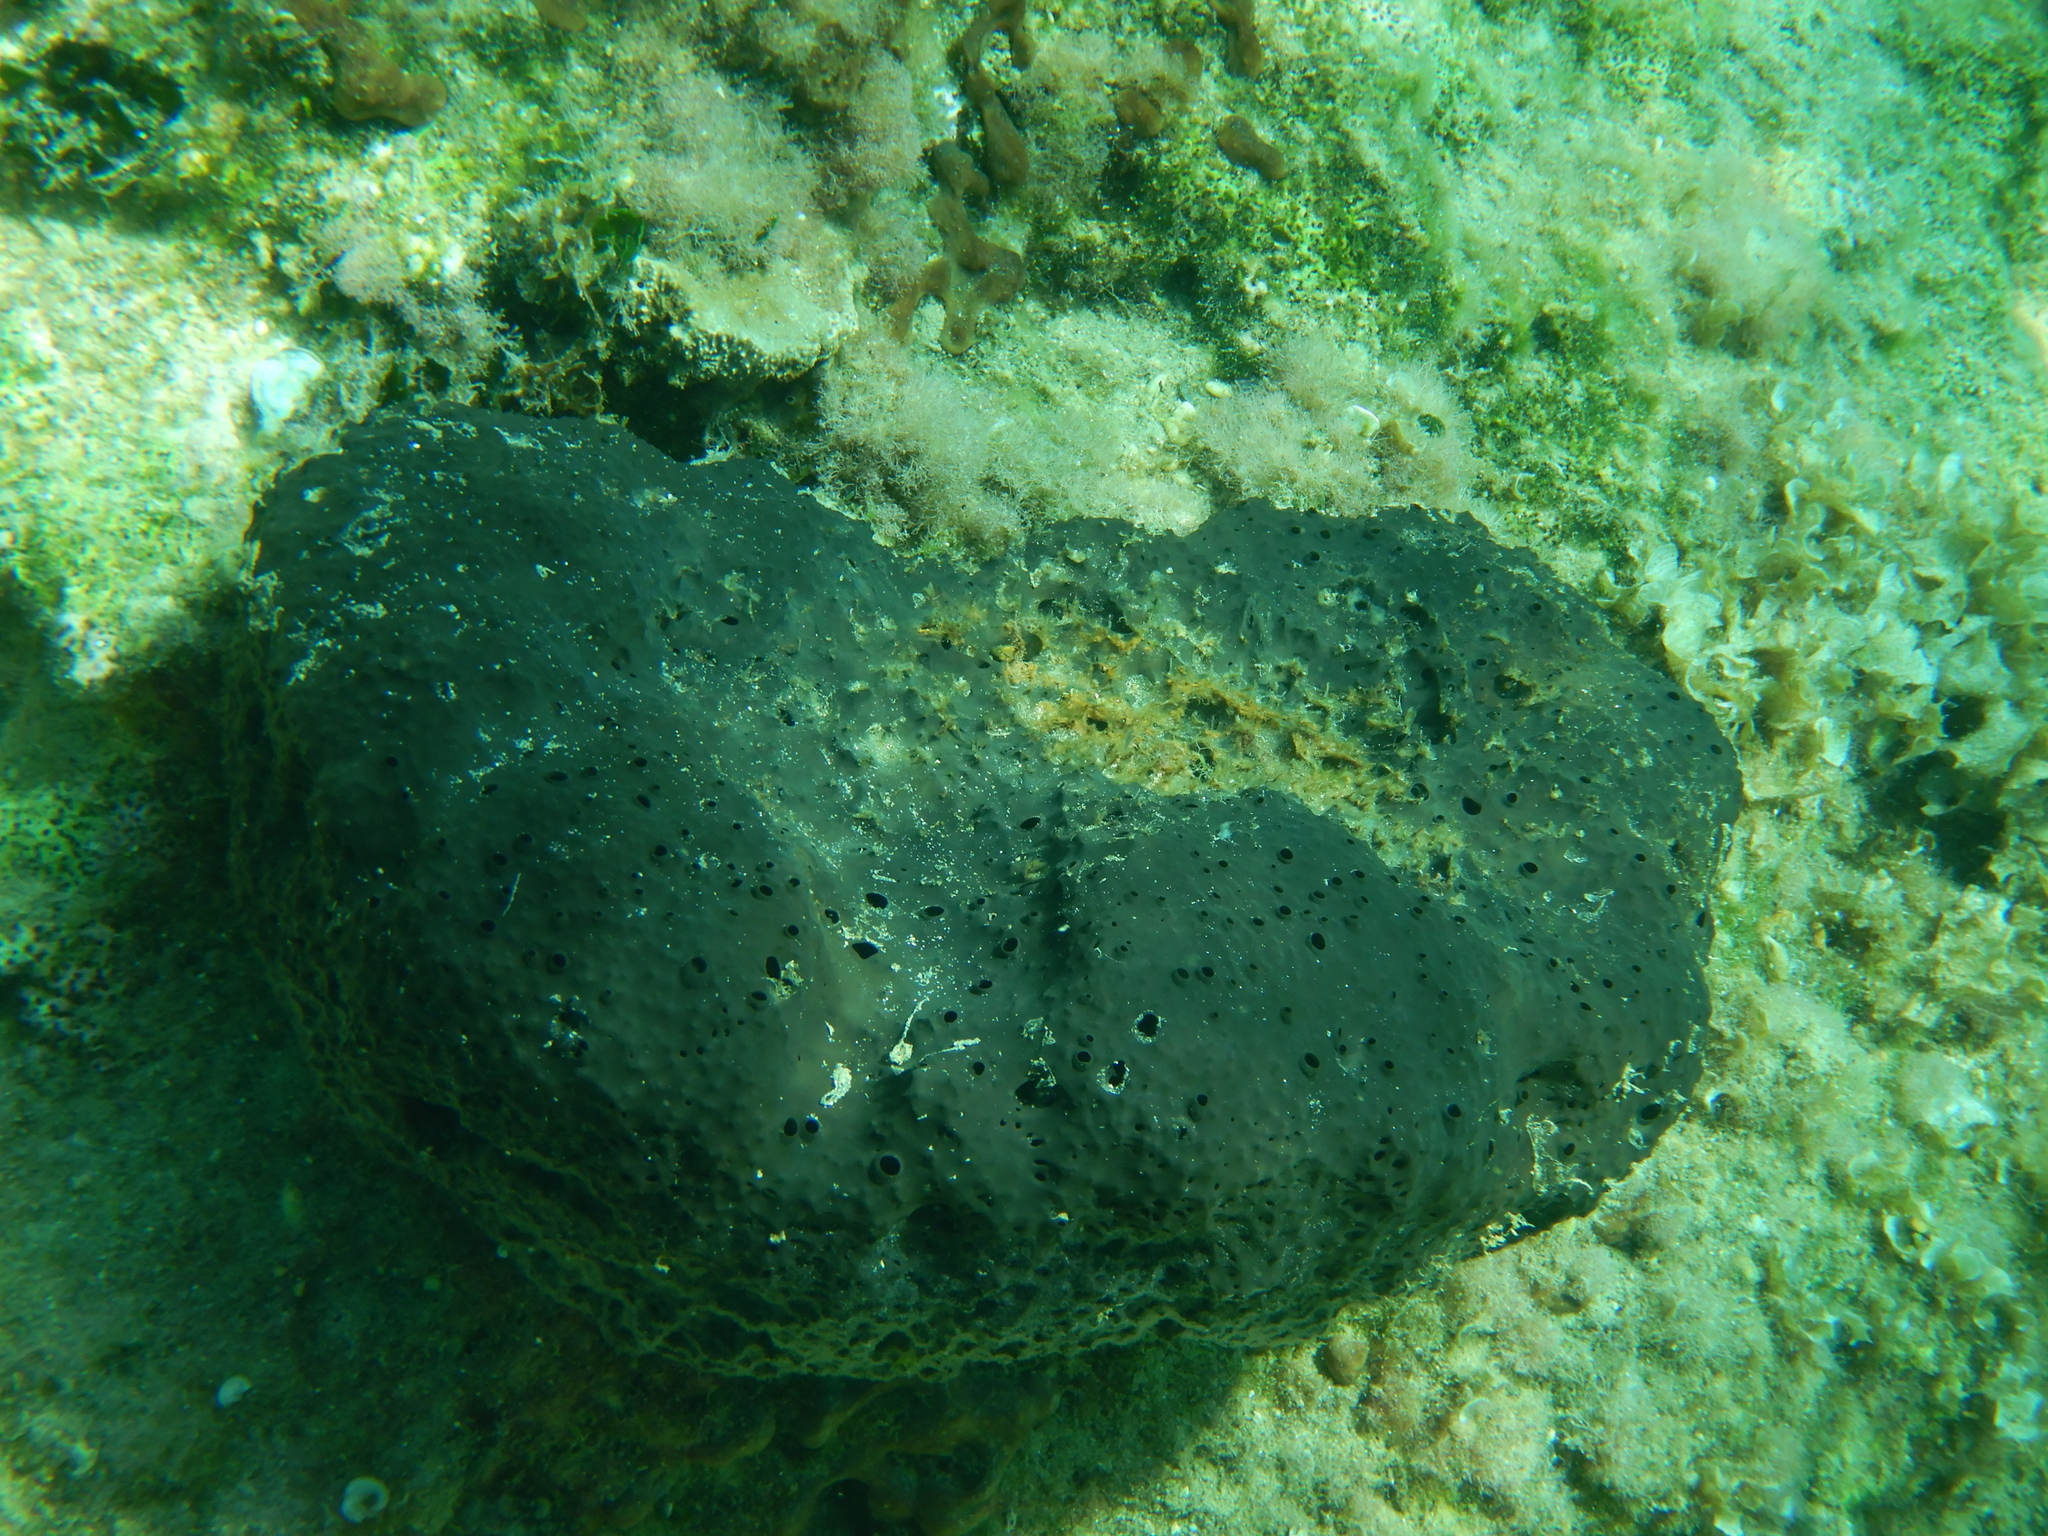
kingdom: Animalia
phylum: Porifera
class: Demospongiae
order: Dictyoceratida
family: Irciniidae
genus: Sarcotragus
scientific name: Sarcotragus spinosulus
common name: Black leather sponge
